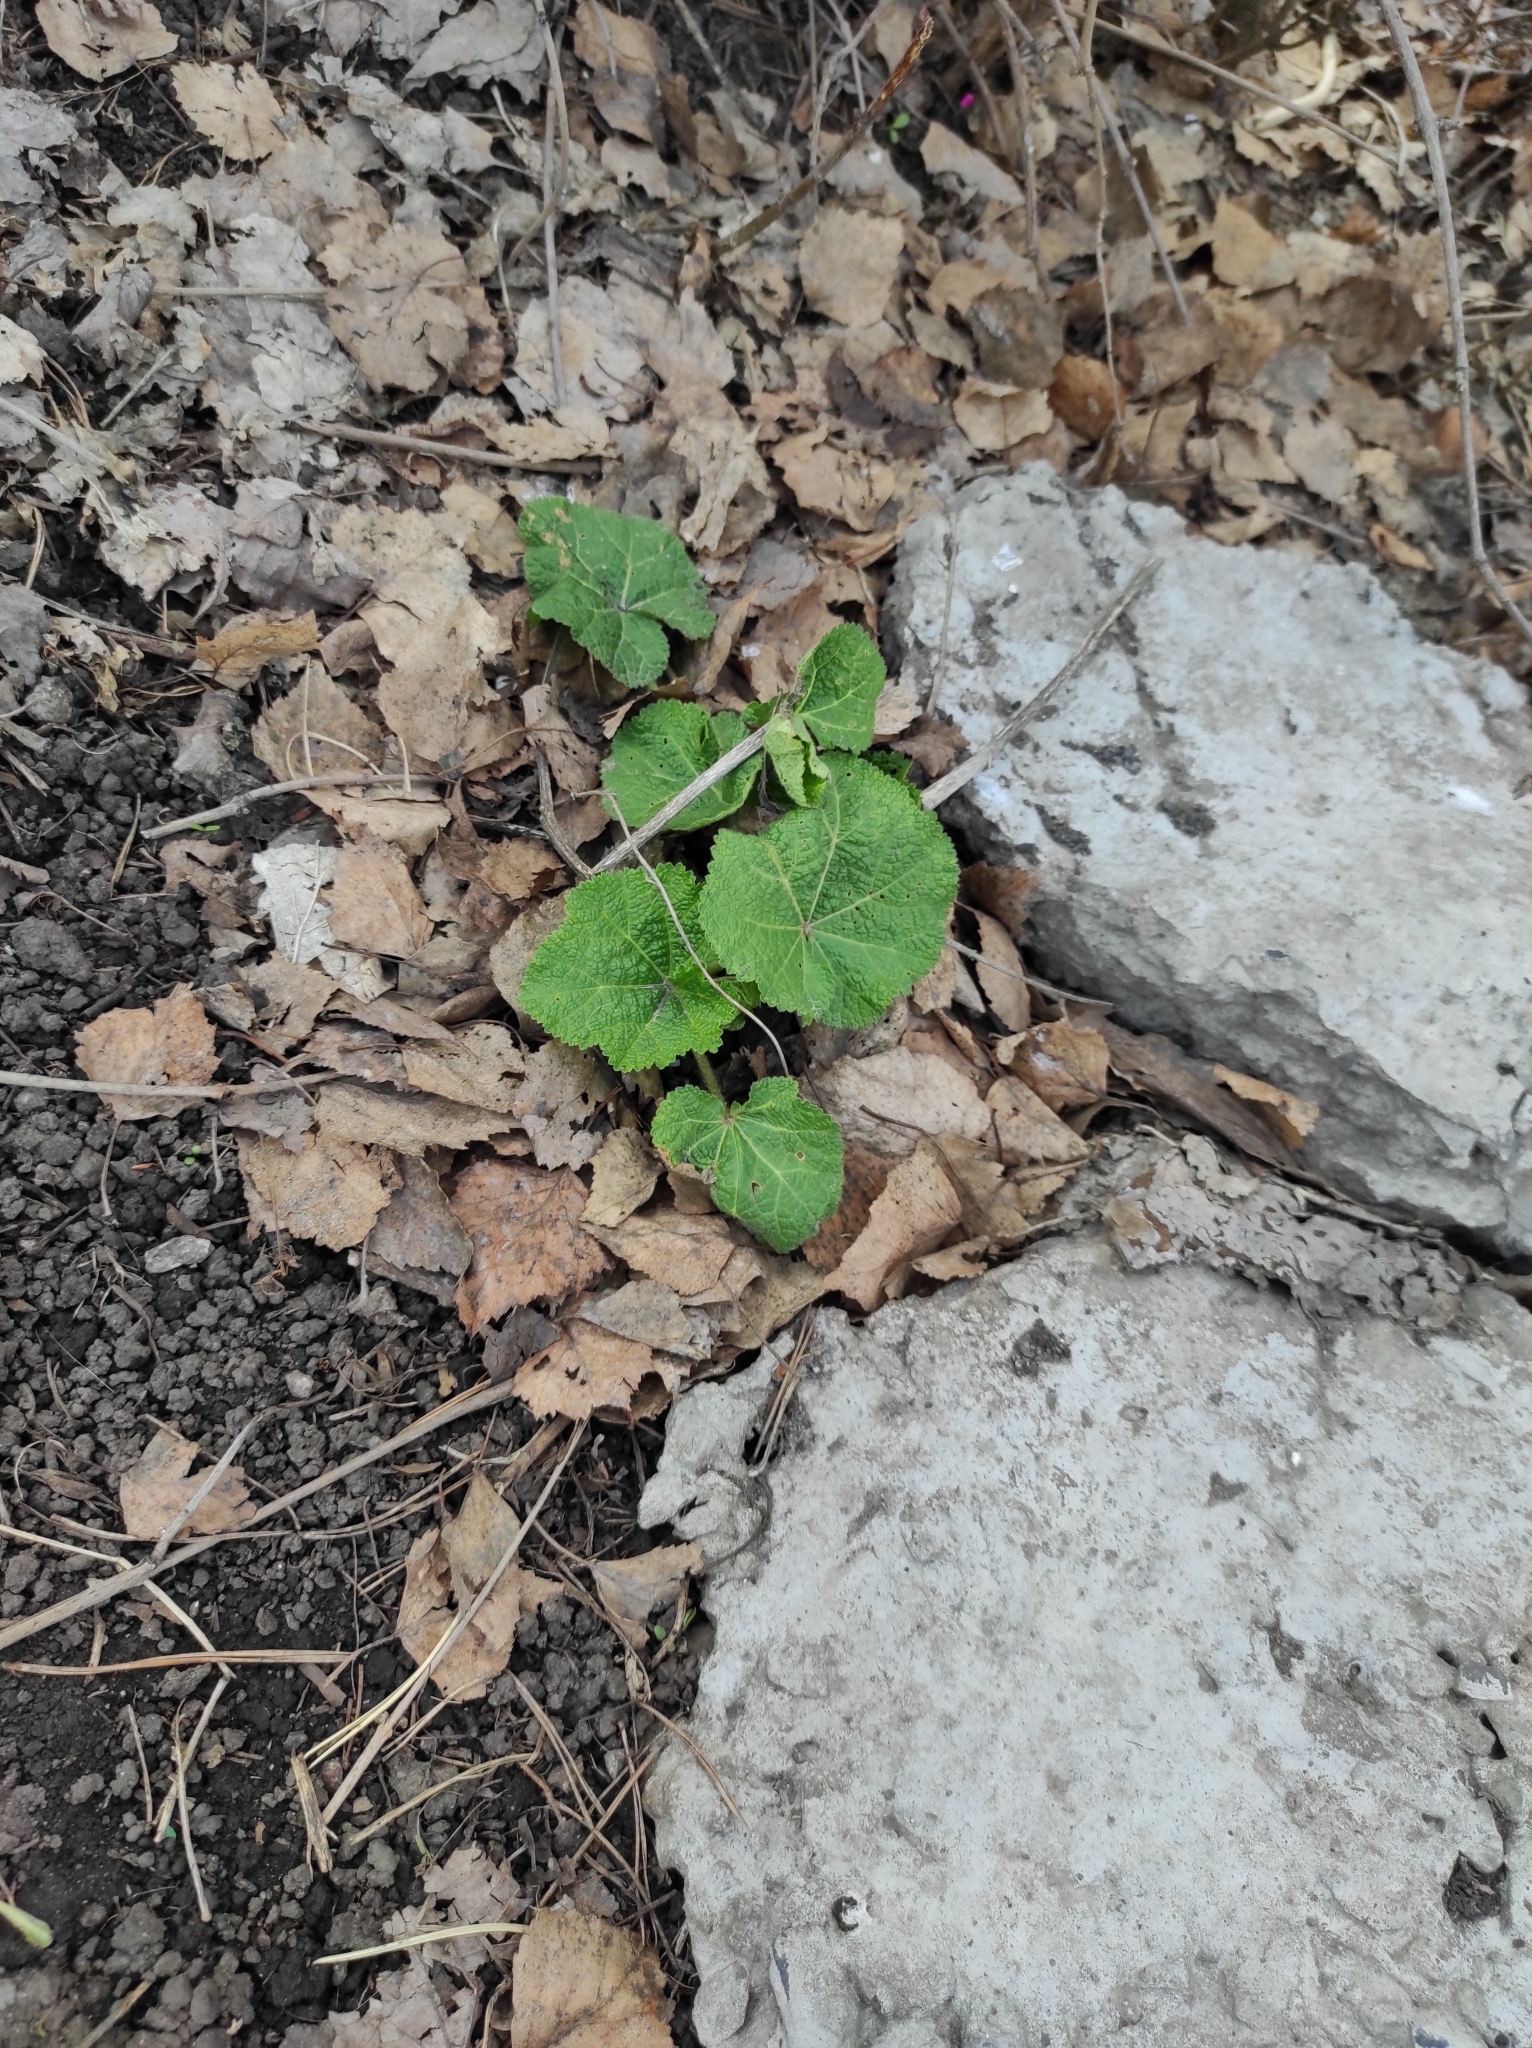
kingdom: Plantae
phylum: Tracheophyta
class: Magnoliopsida
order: Malvales
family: Malvaceae
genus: Alcea
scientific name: Alcea rosea
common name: Hollyhock
